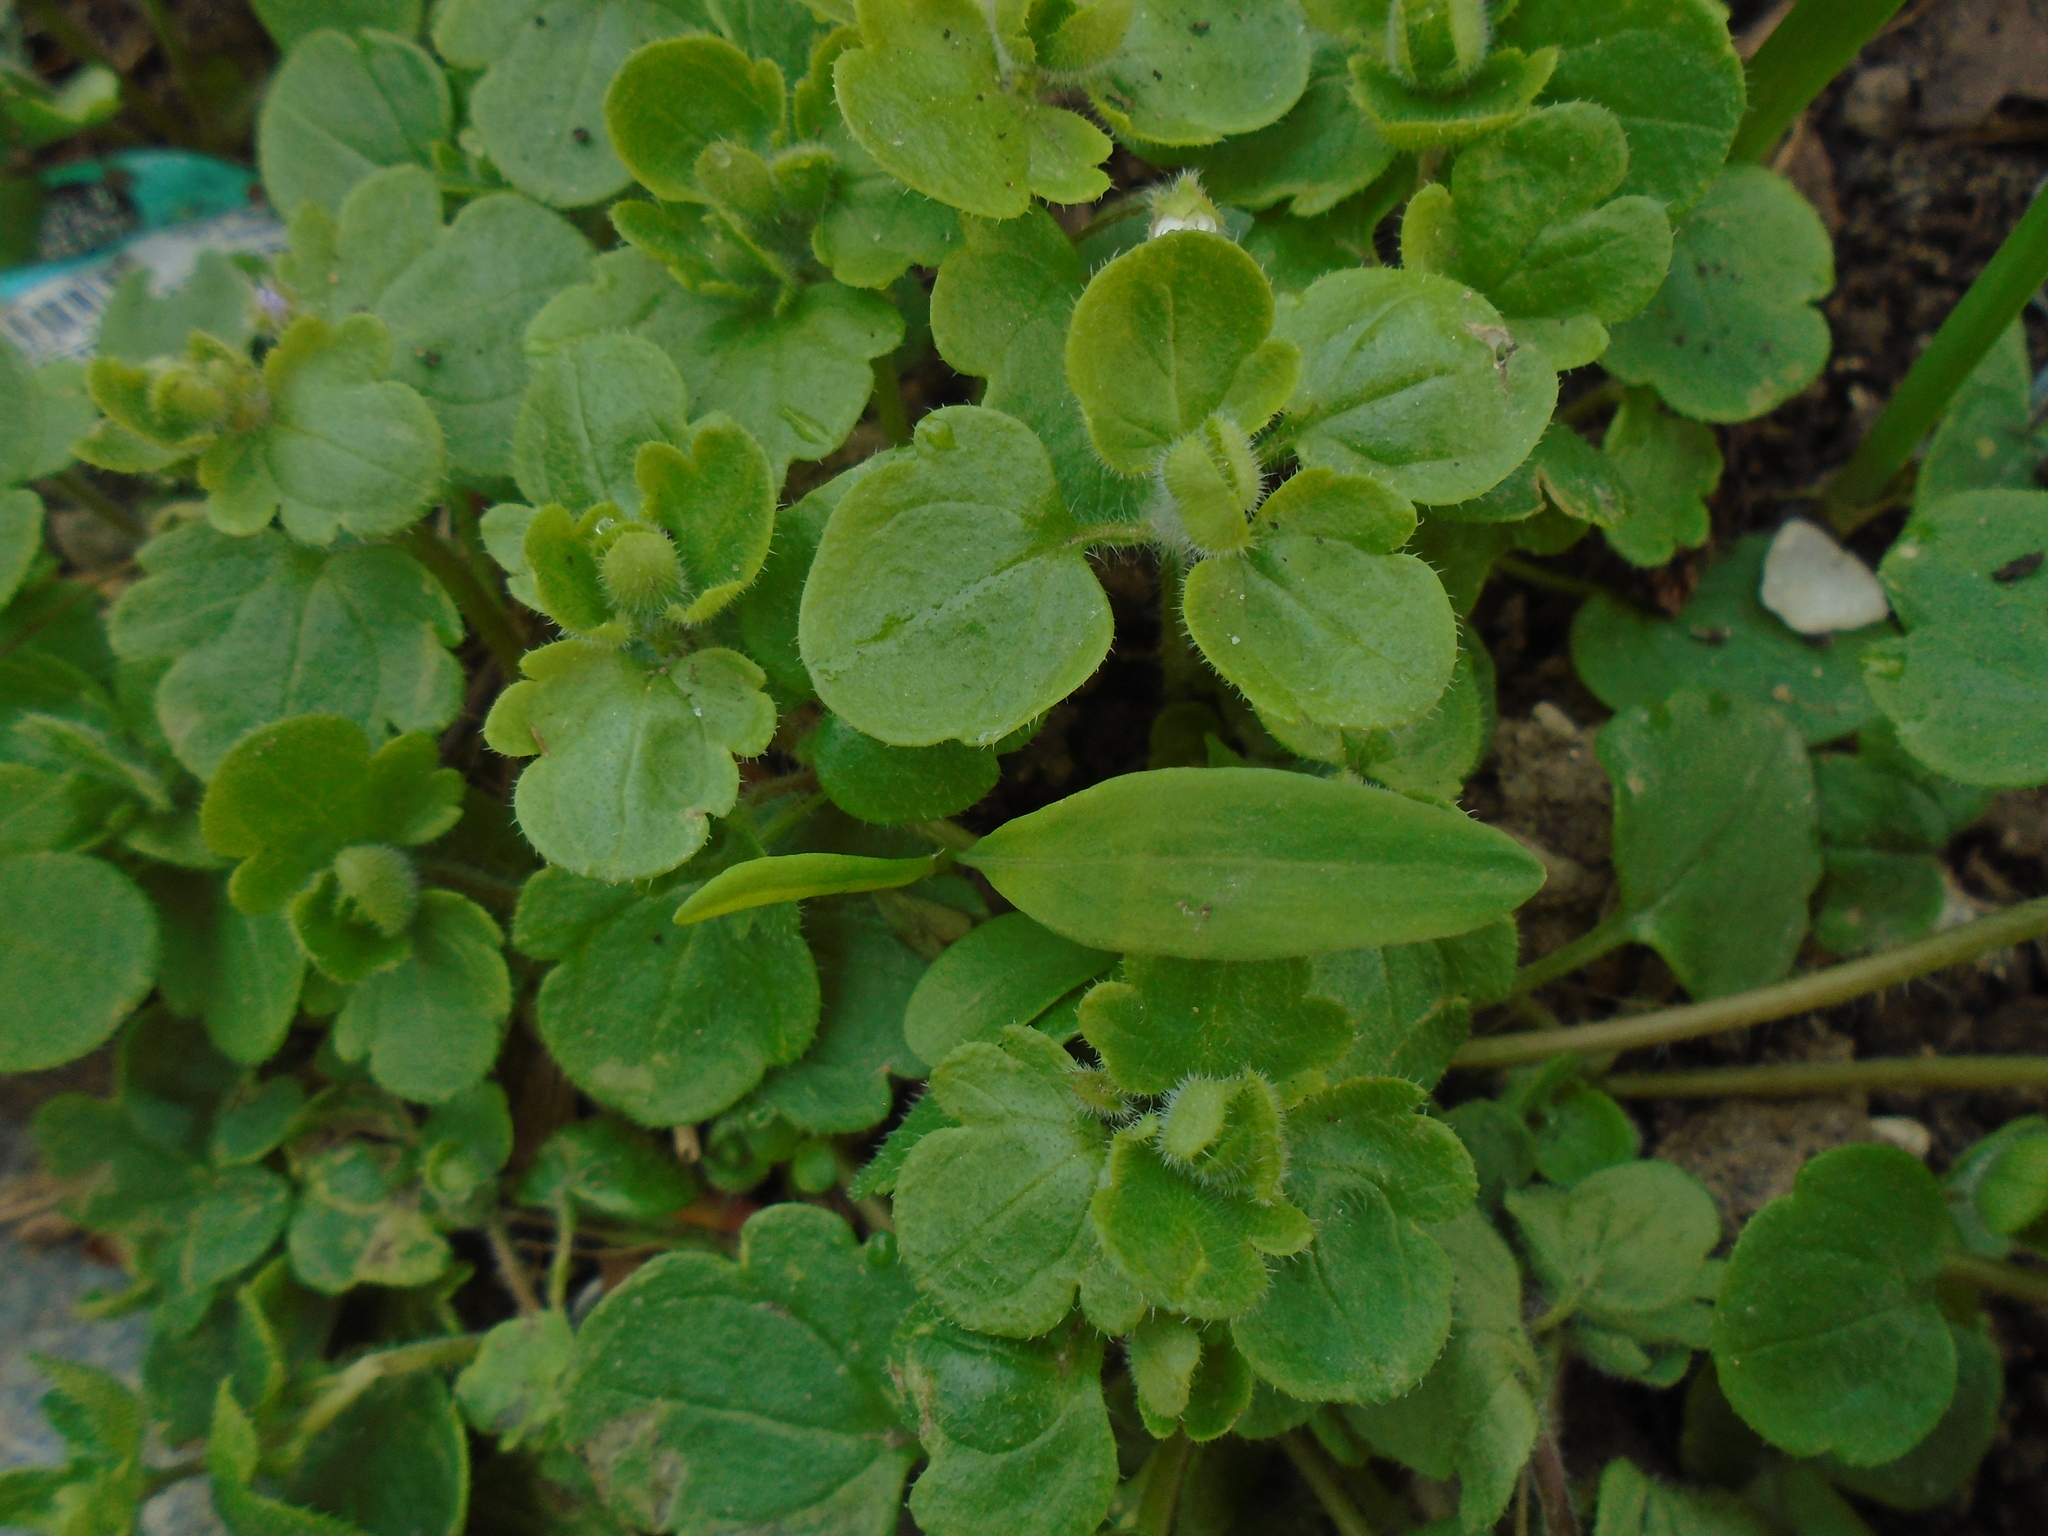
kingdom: Plantae
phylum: Tracheophyta
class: Magnoliopsida
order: Lamiales
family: Plantaginaceae
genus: Veronica
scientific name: Veronica sublobata
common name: False ivy-leaved speedwell
